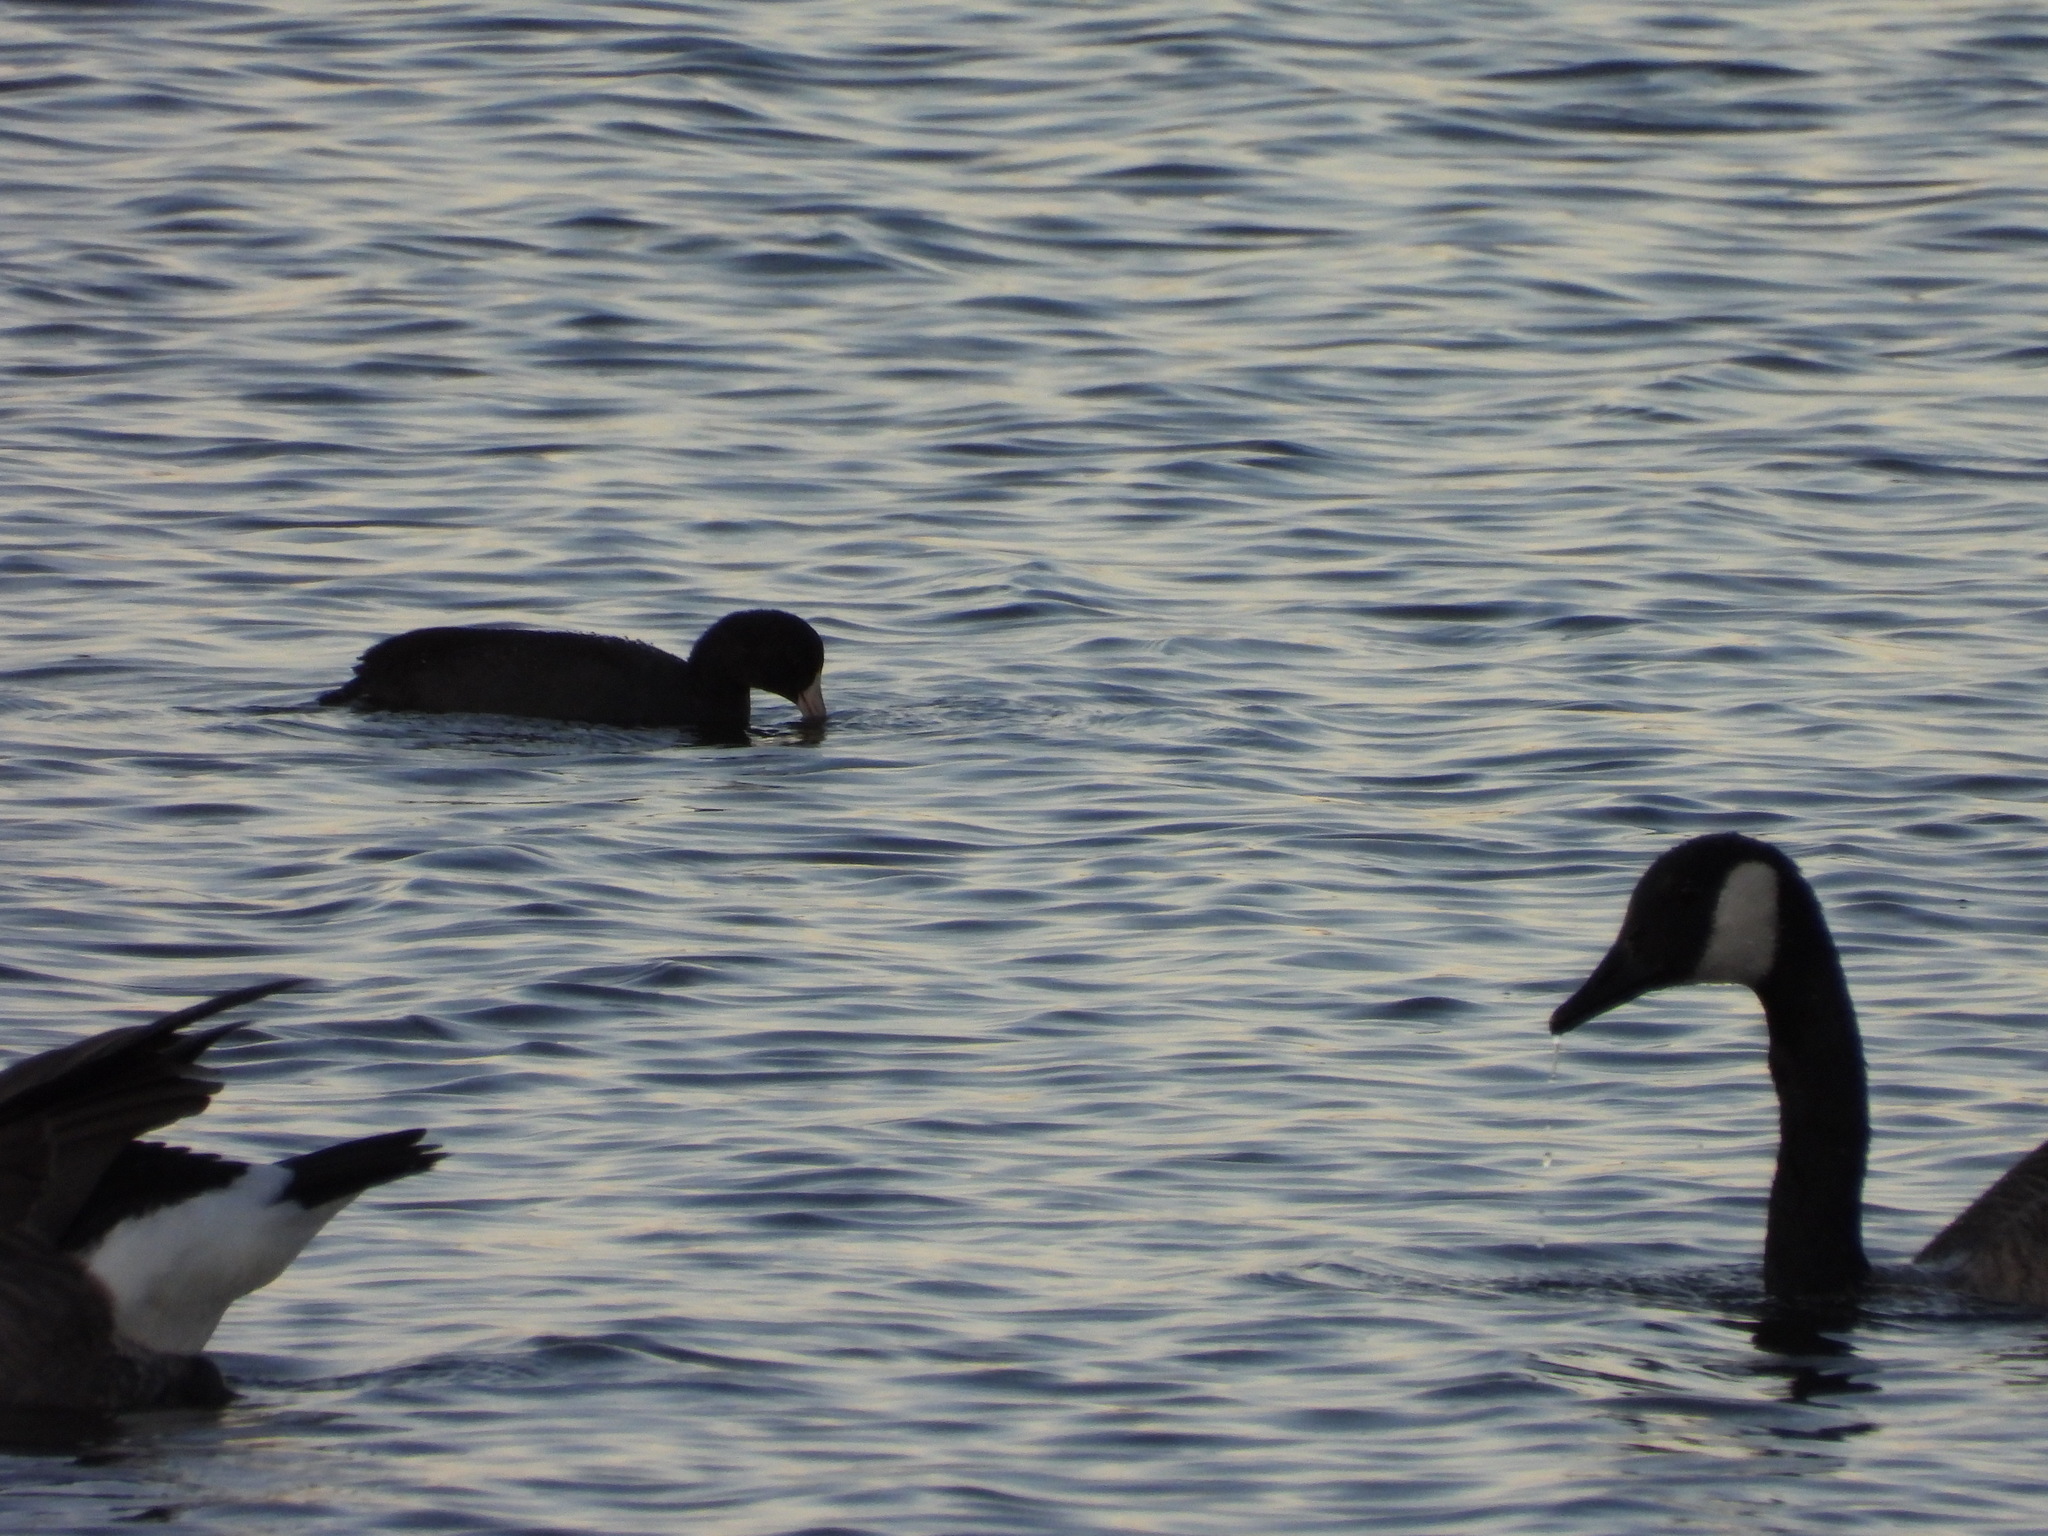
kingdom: Animalia
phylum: Chordata
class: Aves
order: Gruiformes
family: Rallidae
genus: Fulica
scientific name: Fulica americana
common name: American coot
